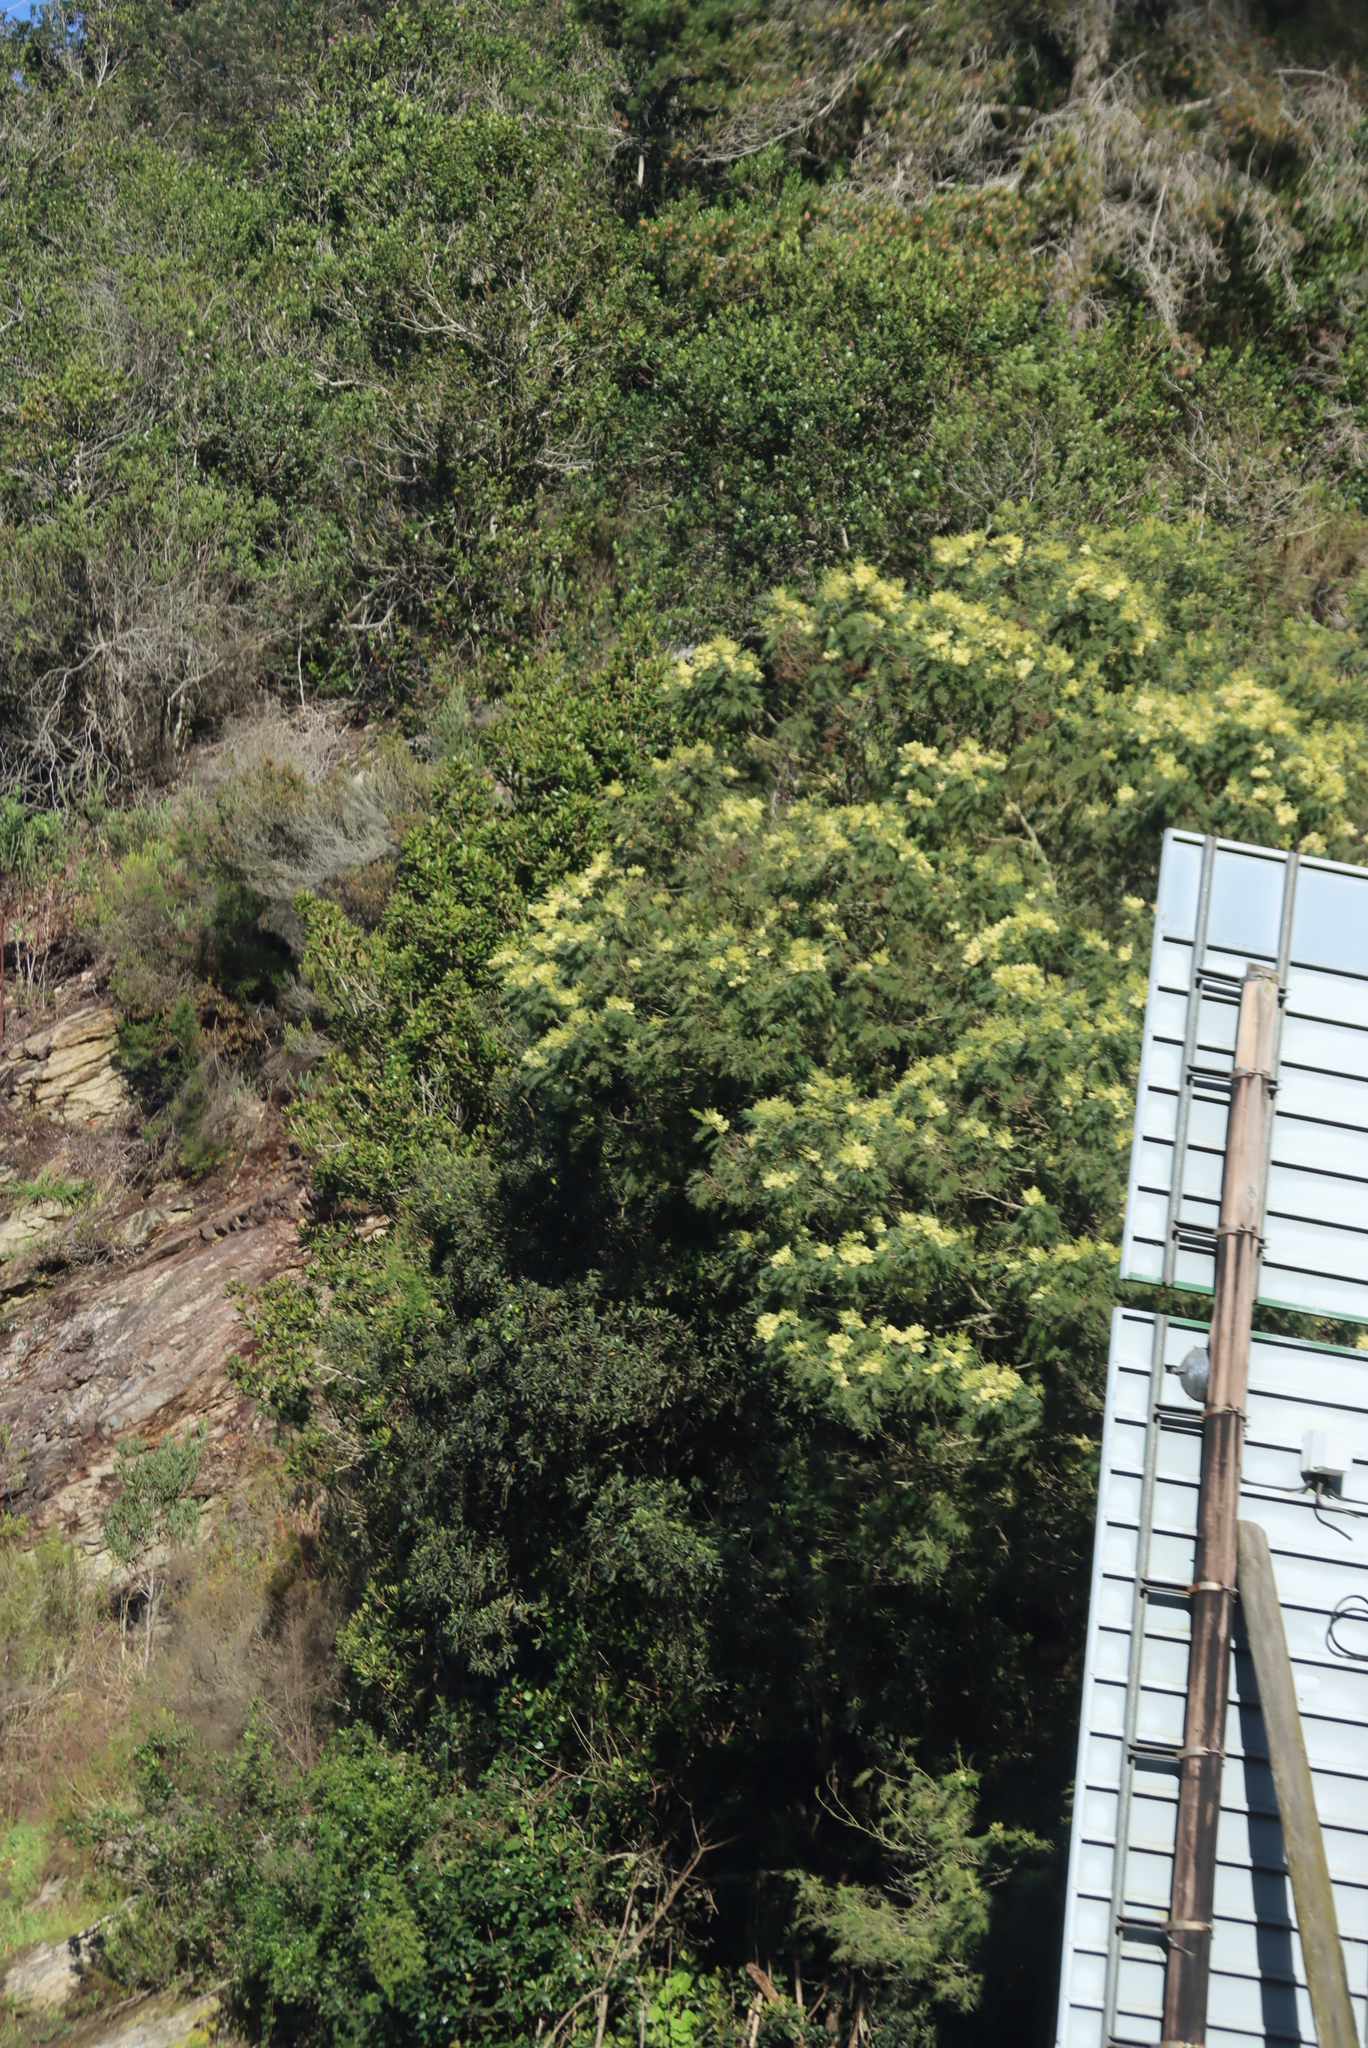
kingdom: Plantae
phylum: Tracheophyta
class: Magnoliopsida
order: Fabales
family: Fabaceae
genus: Acacia
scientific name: Acacia mearnsii
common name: Black wattle
